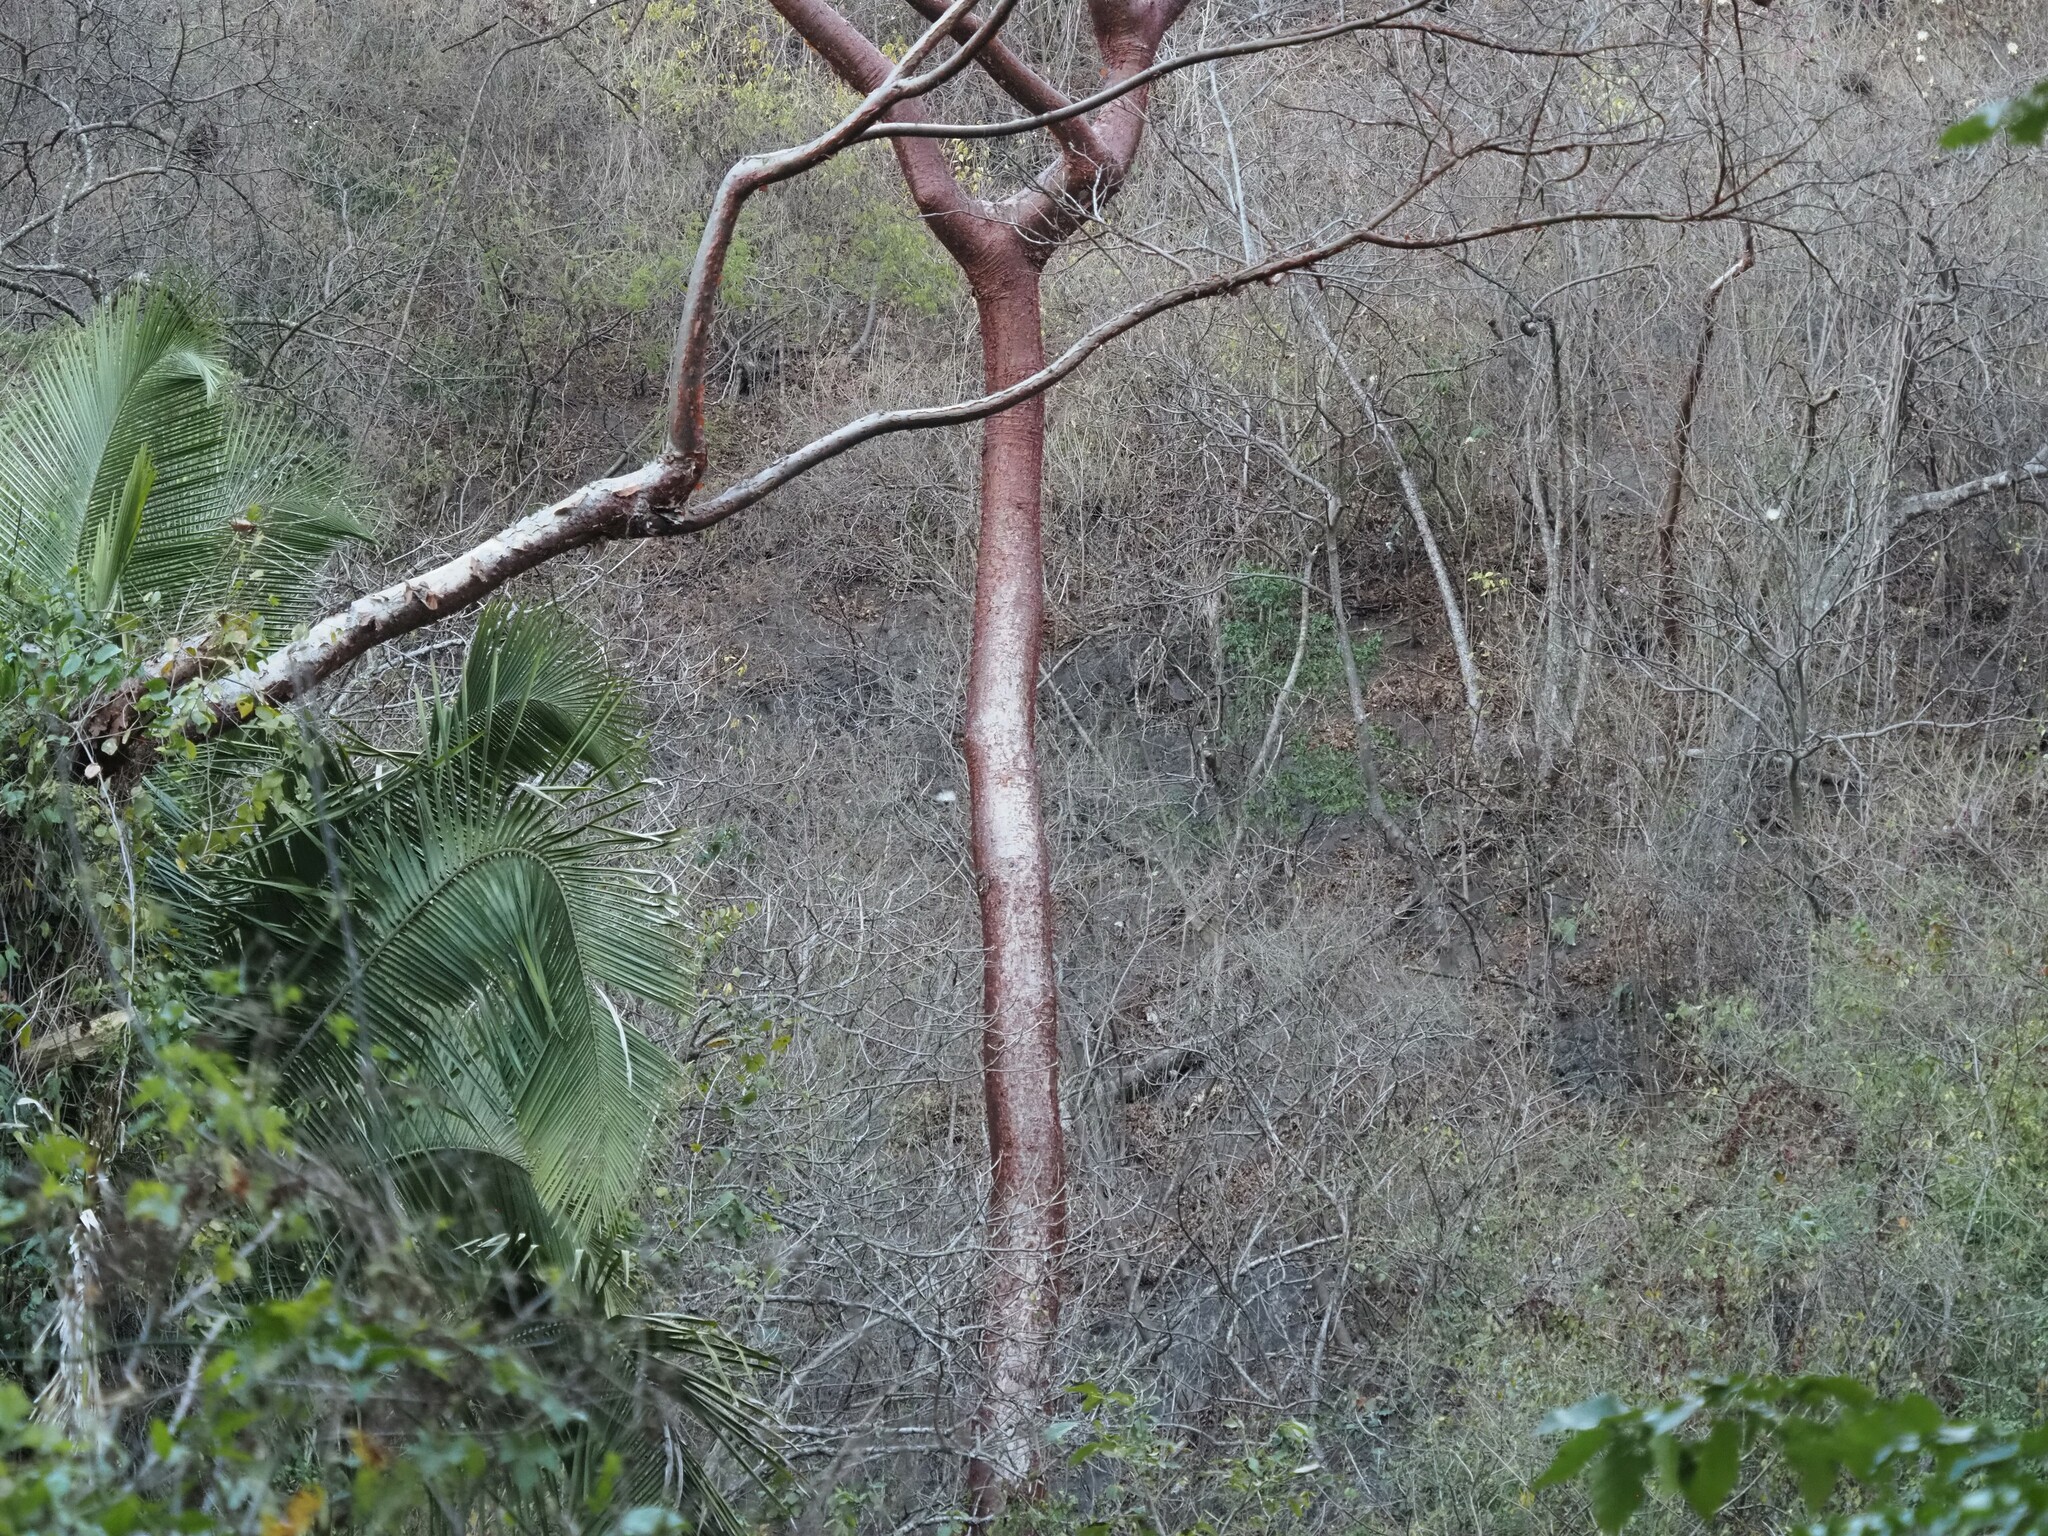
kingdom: Plantae
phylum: Tracheophyta
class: Magnoliopsida
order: Sapindales
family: Burseraceae
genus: Bursera
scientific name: Bursera simaruba
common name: Turpentine tree
